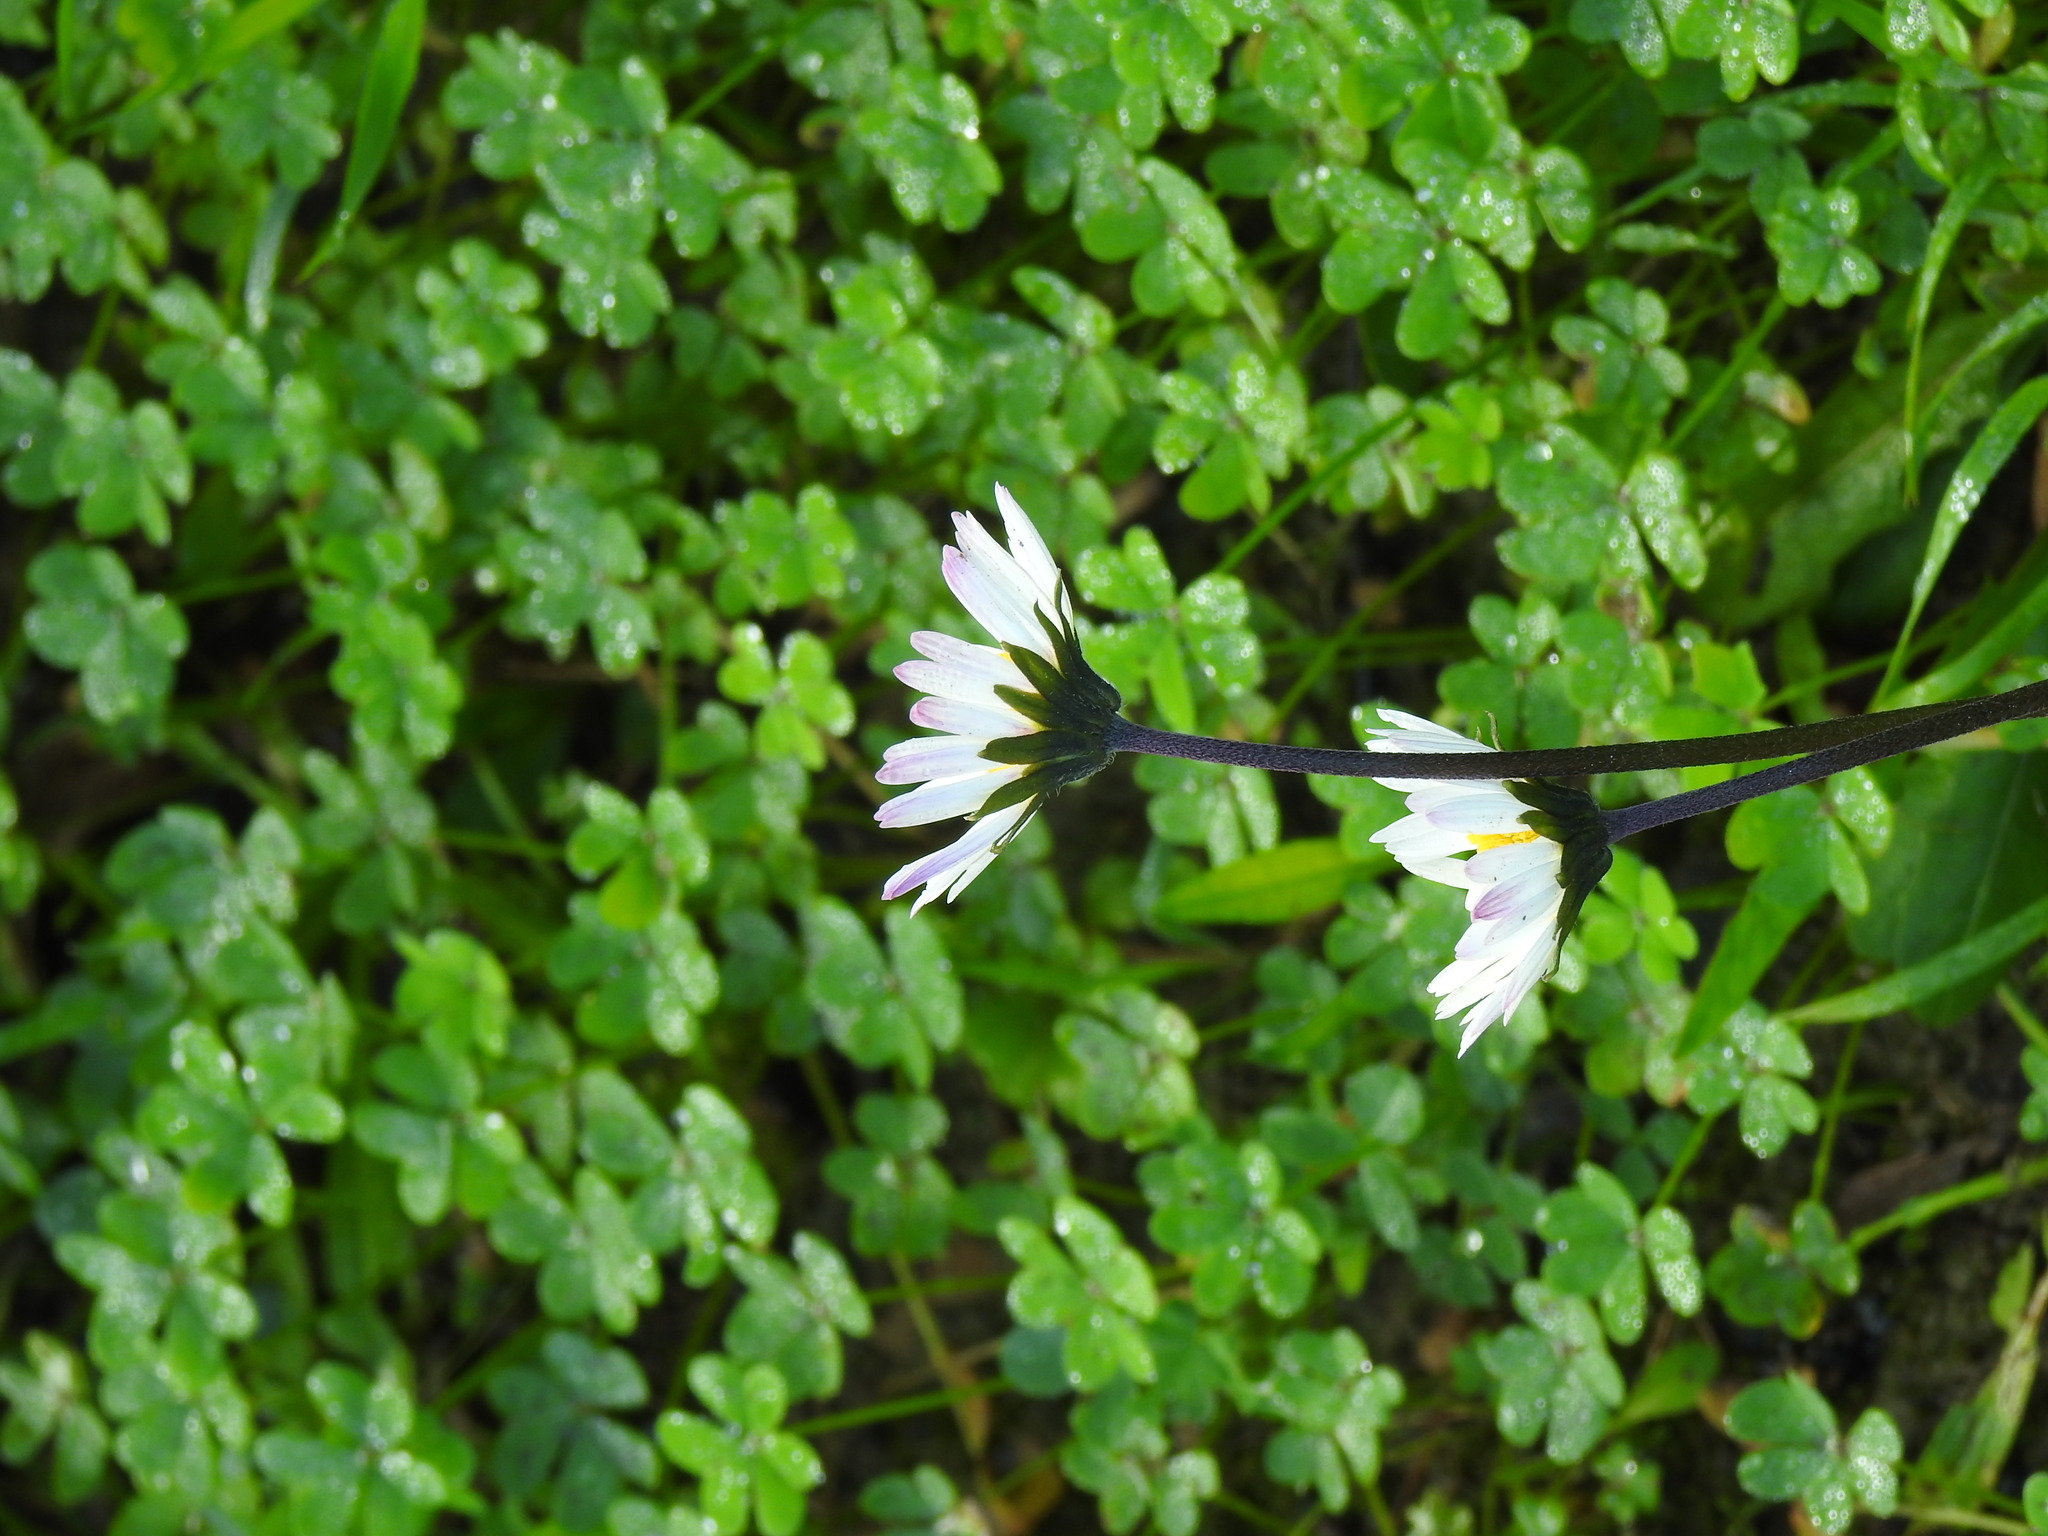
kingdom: Plantae
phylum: Tracheophyta
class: Magnoliopsida
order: Asterales
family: Asteraceae
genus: Bellis
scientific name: Bellis sylvestris
